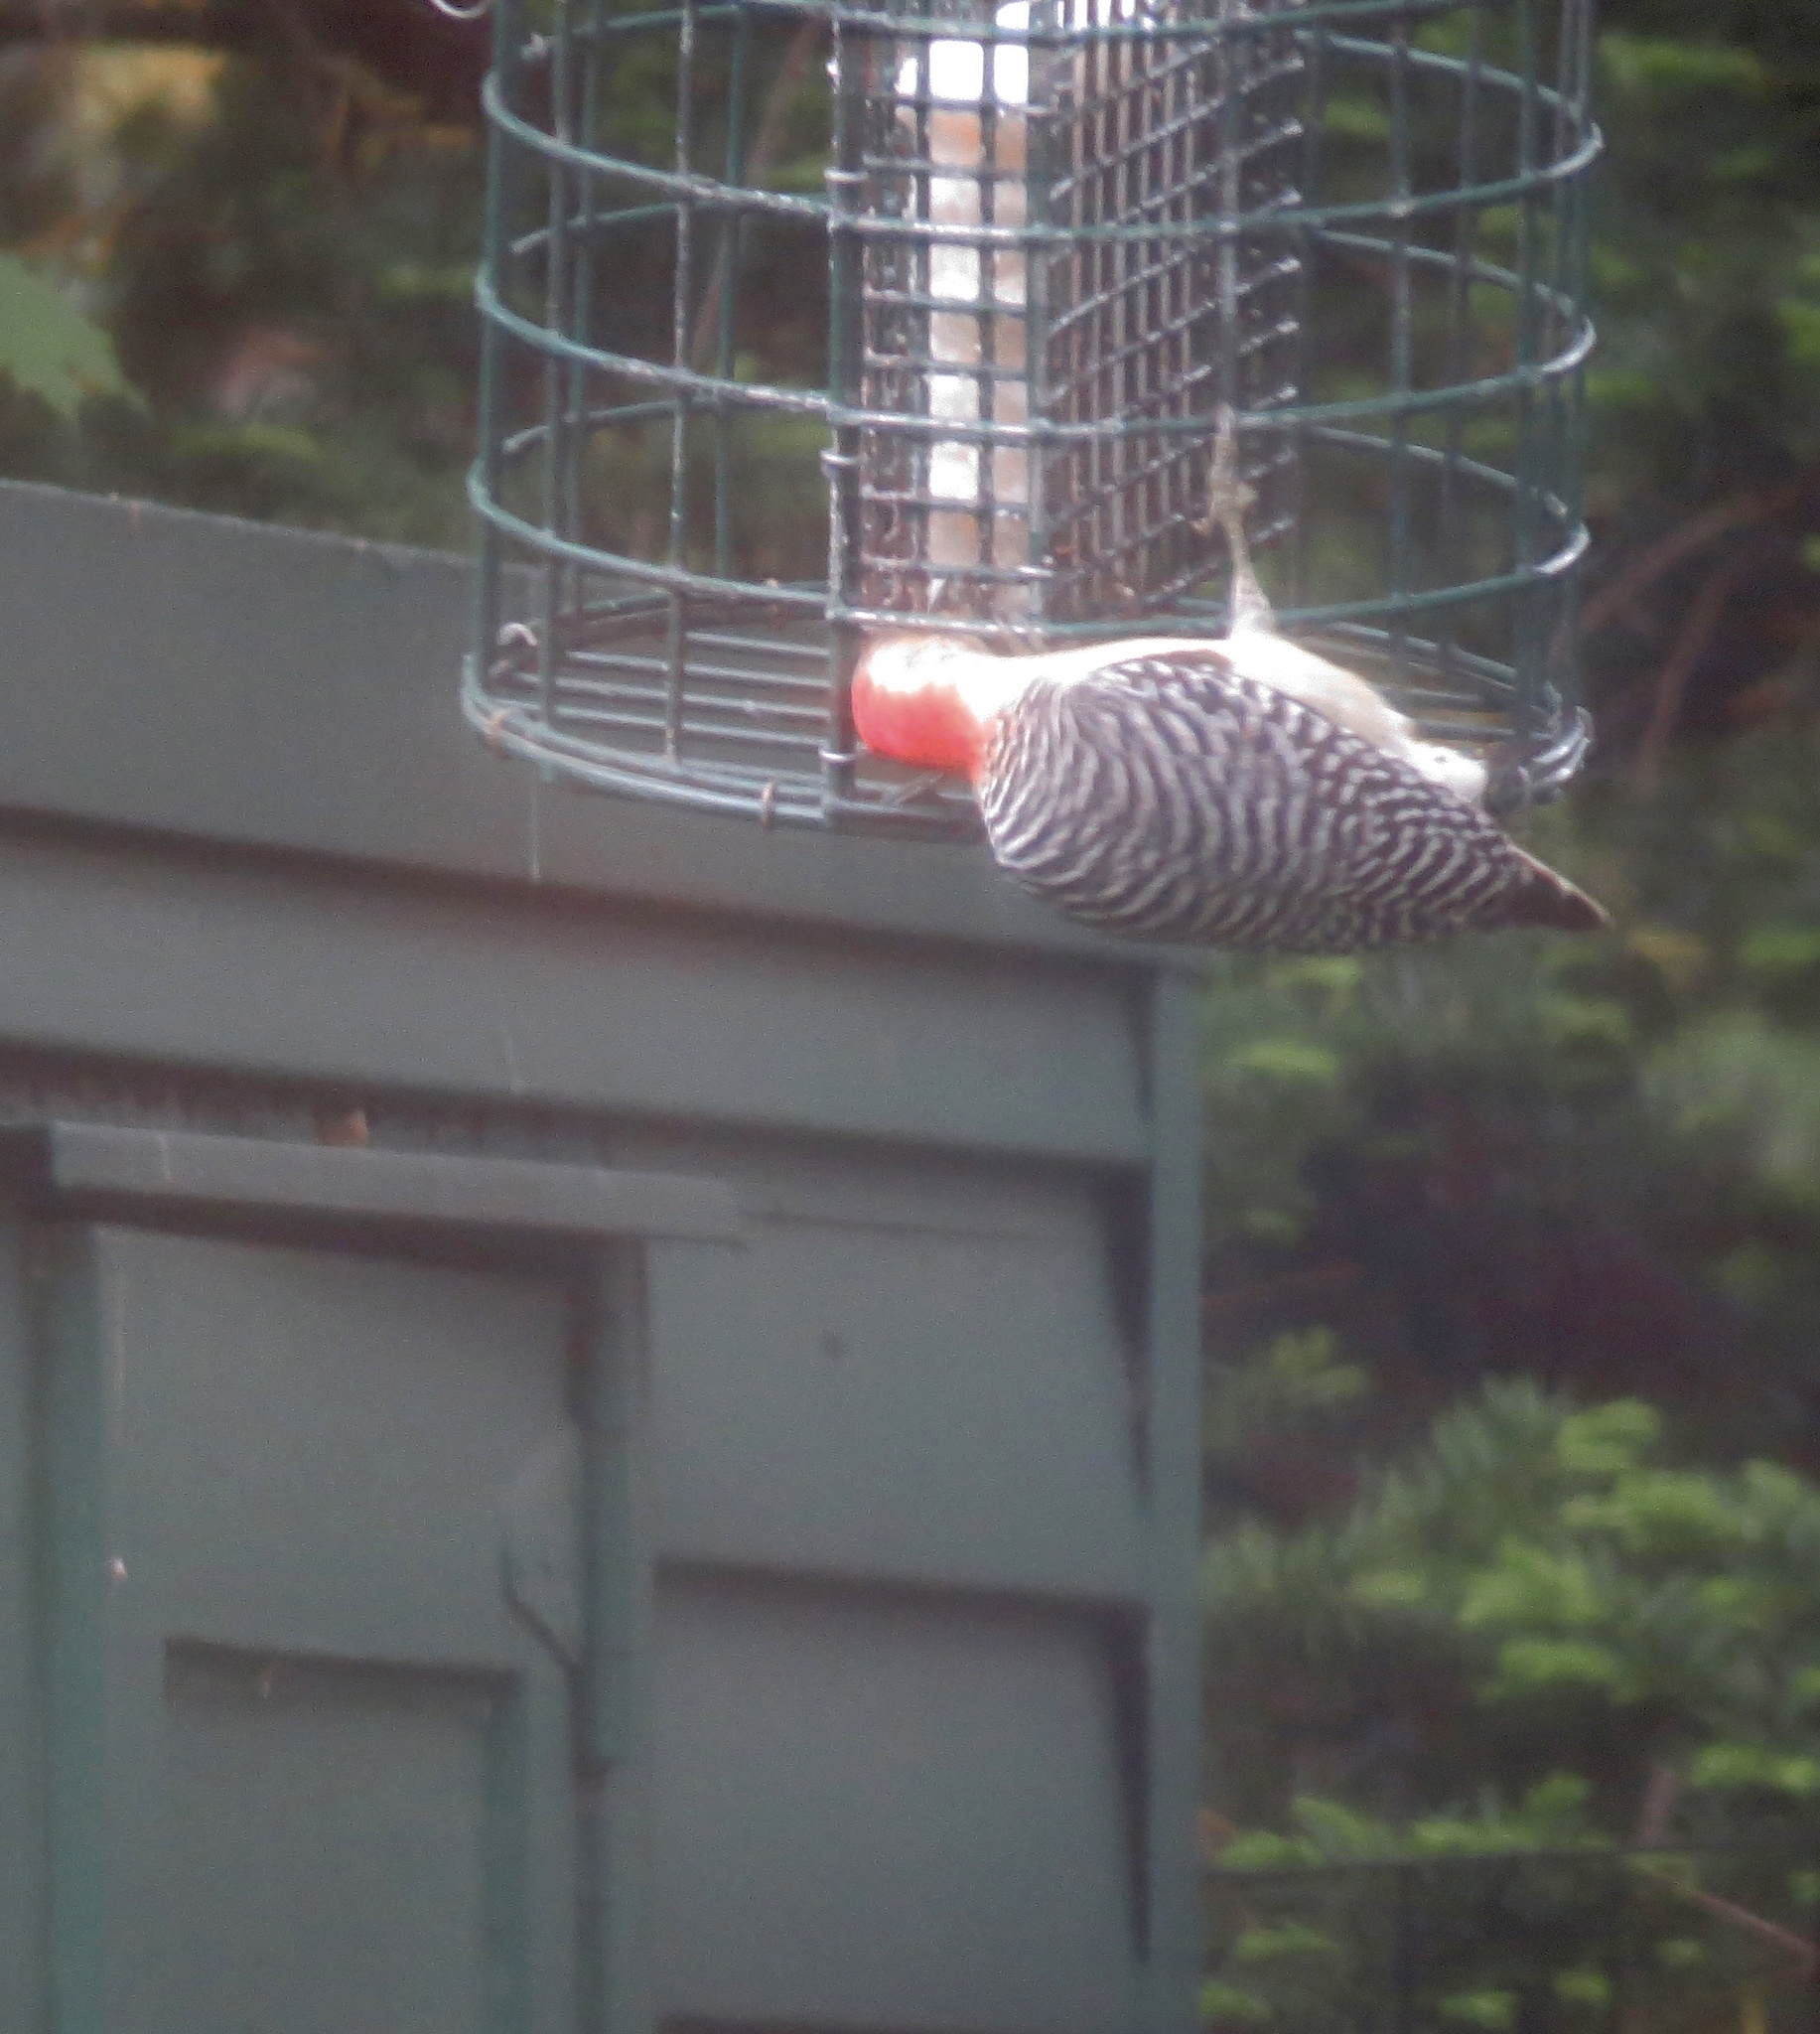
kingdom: Animalia
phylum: Chordata
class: Aves
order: Piciformes
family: Picidae
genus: Melanerpes
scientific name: Melanerpes carolinus
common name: Red-bellied woodpecker
